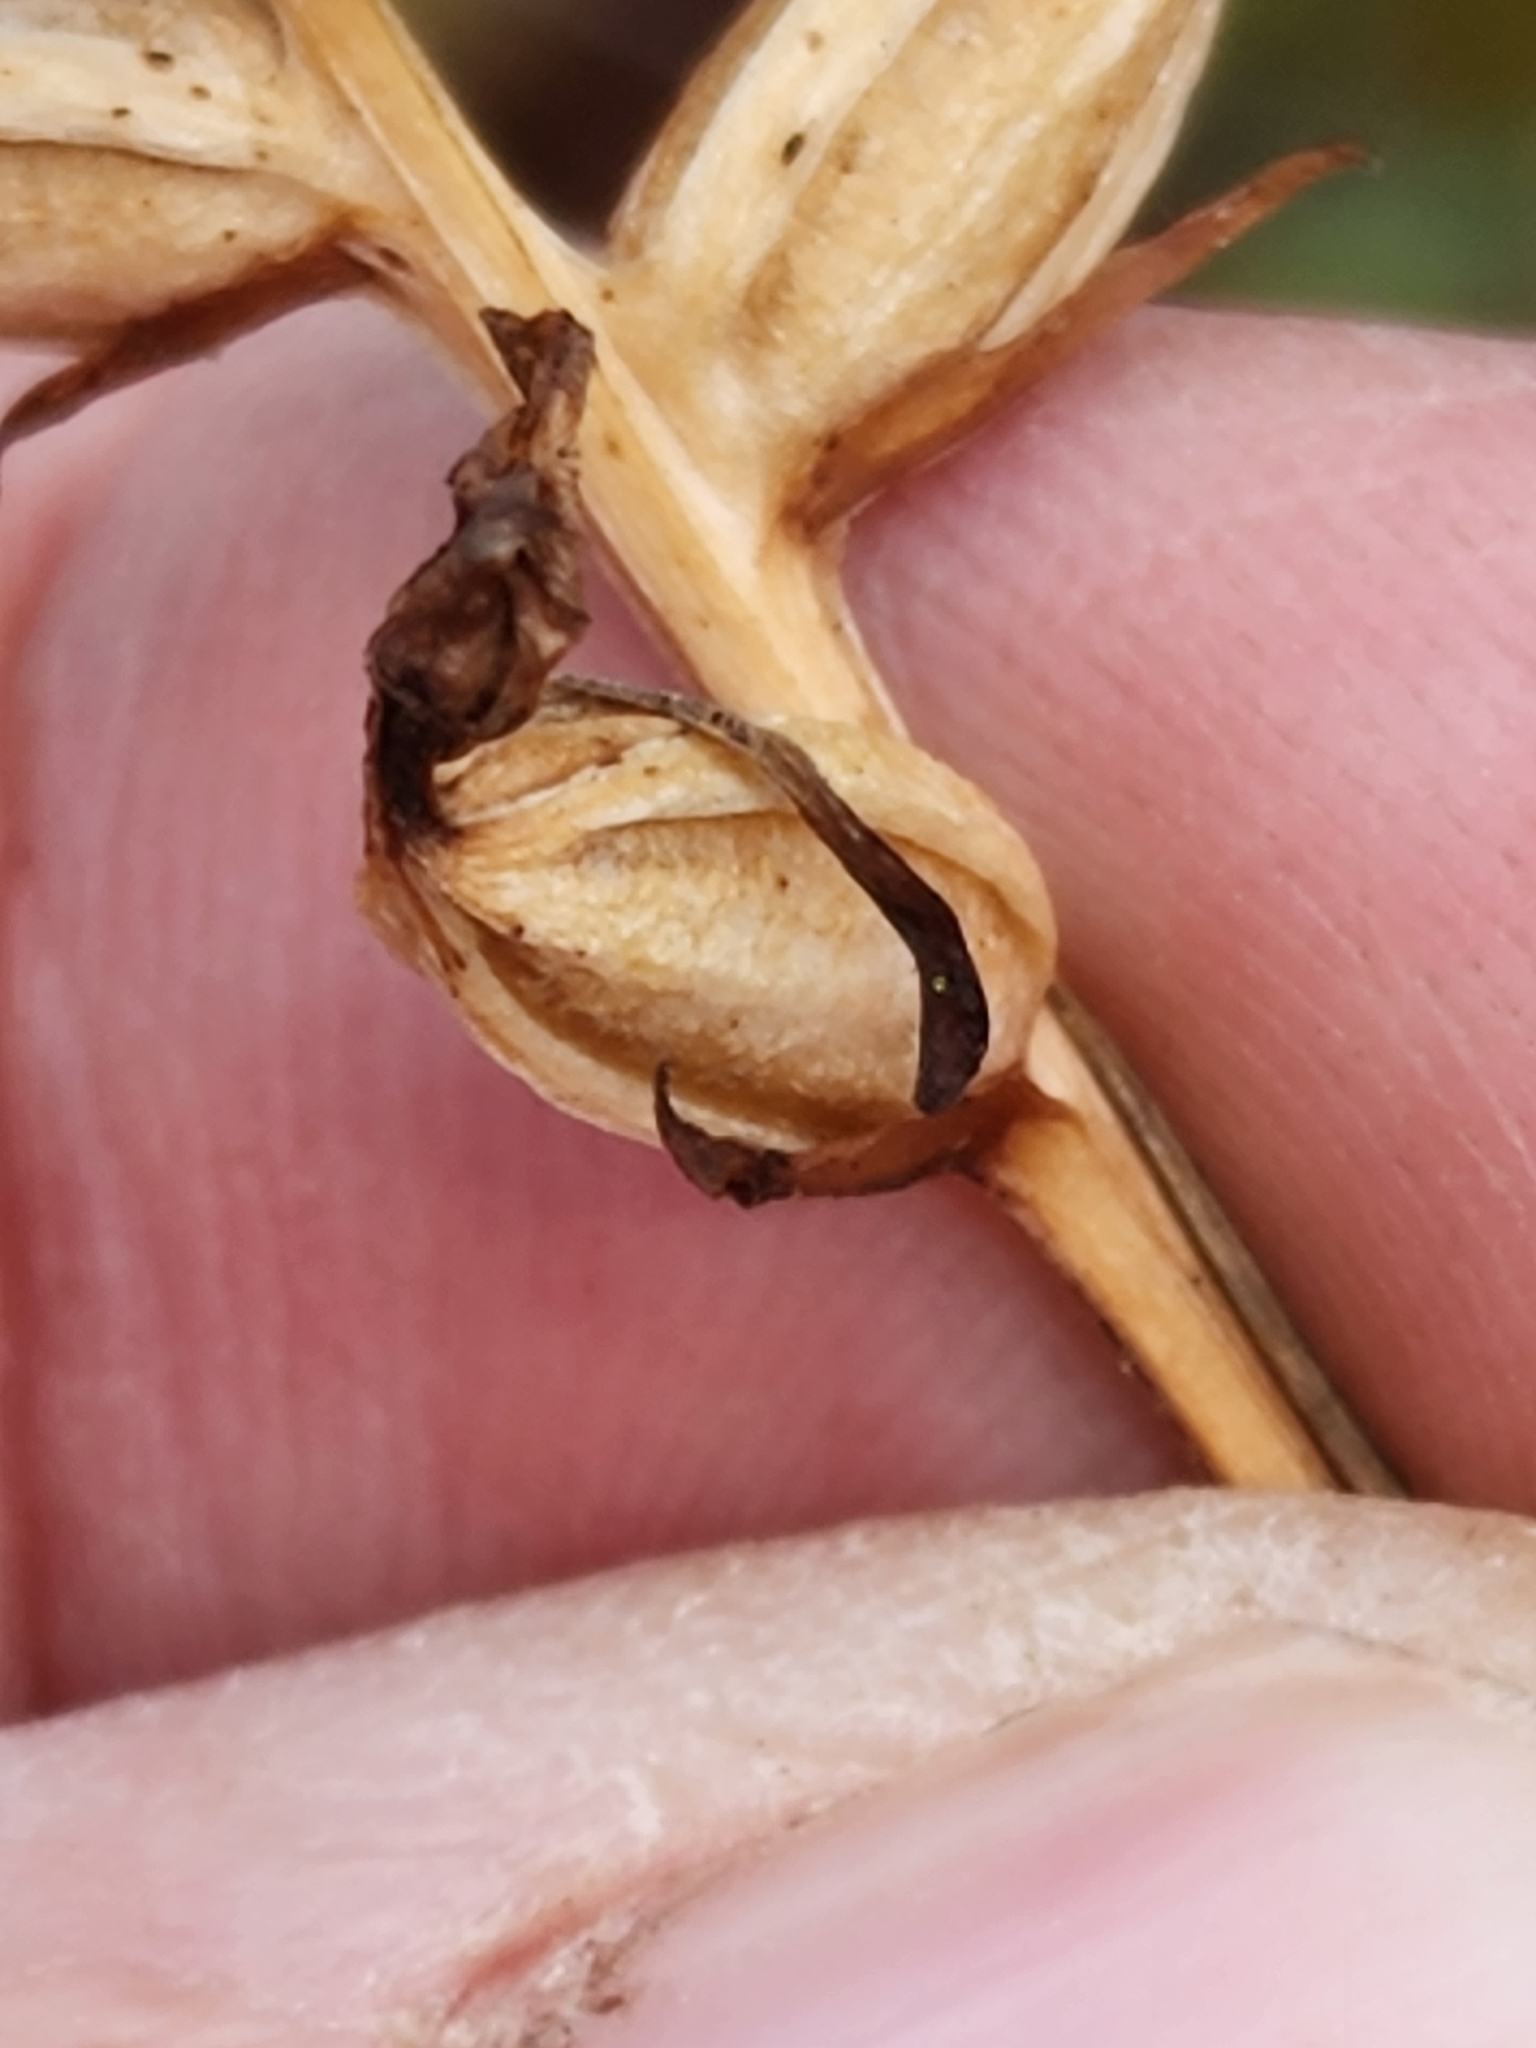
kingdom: Plantae
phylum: Tracheophyta
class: Liliopsida
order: Asparagales
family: Orchidaceae
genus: Platanthera
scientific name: Platanthera clavellata
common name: Club-spur orchid
